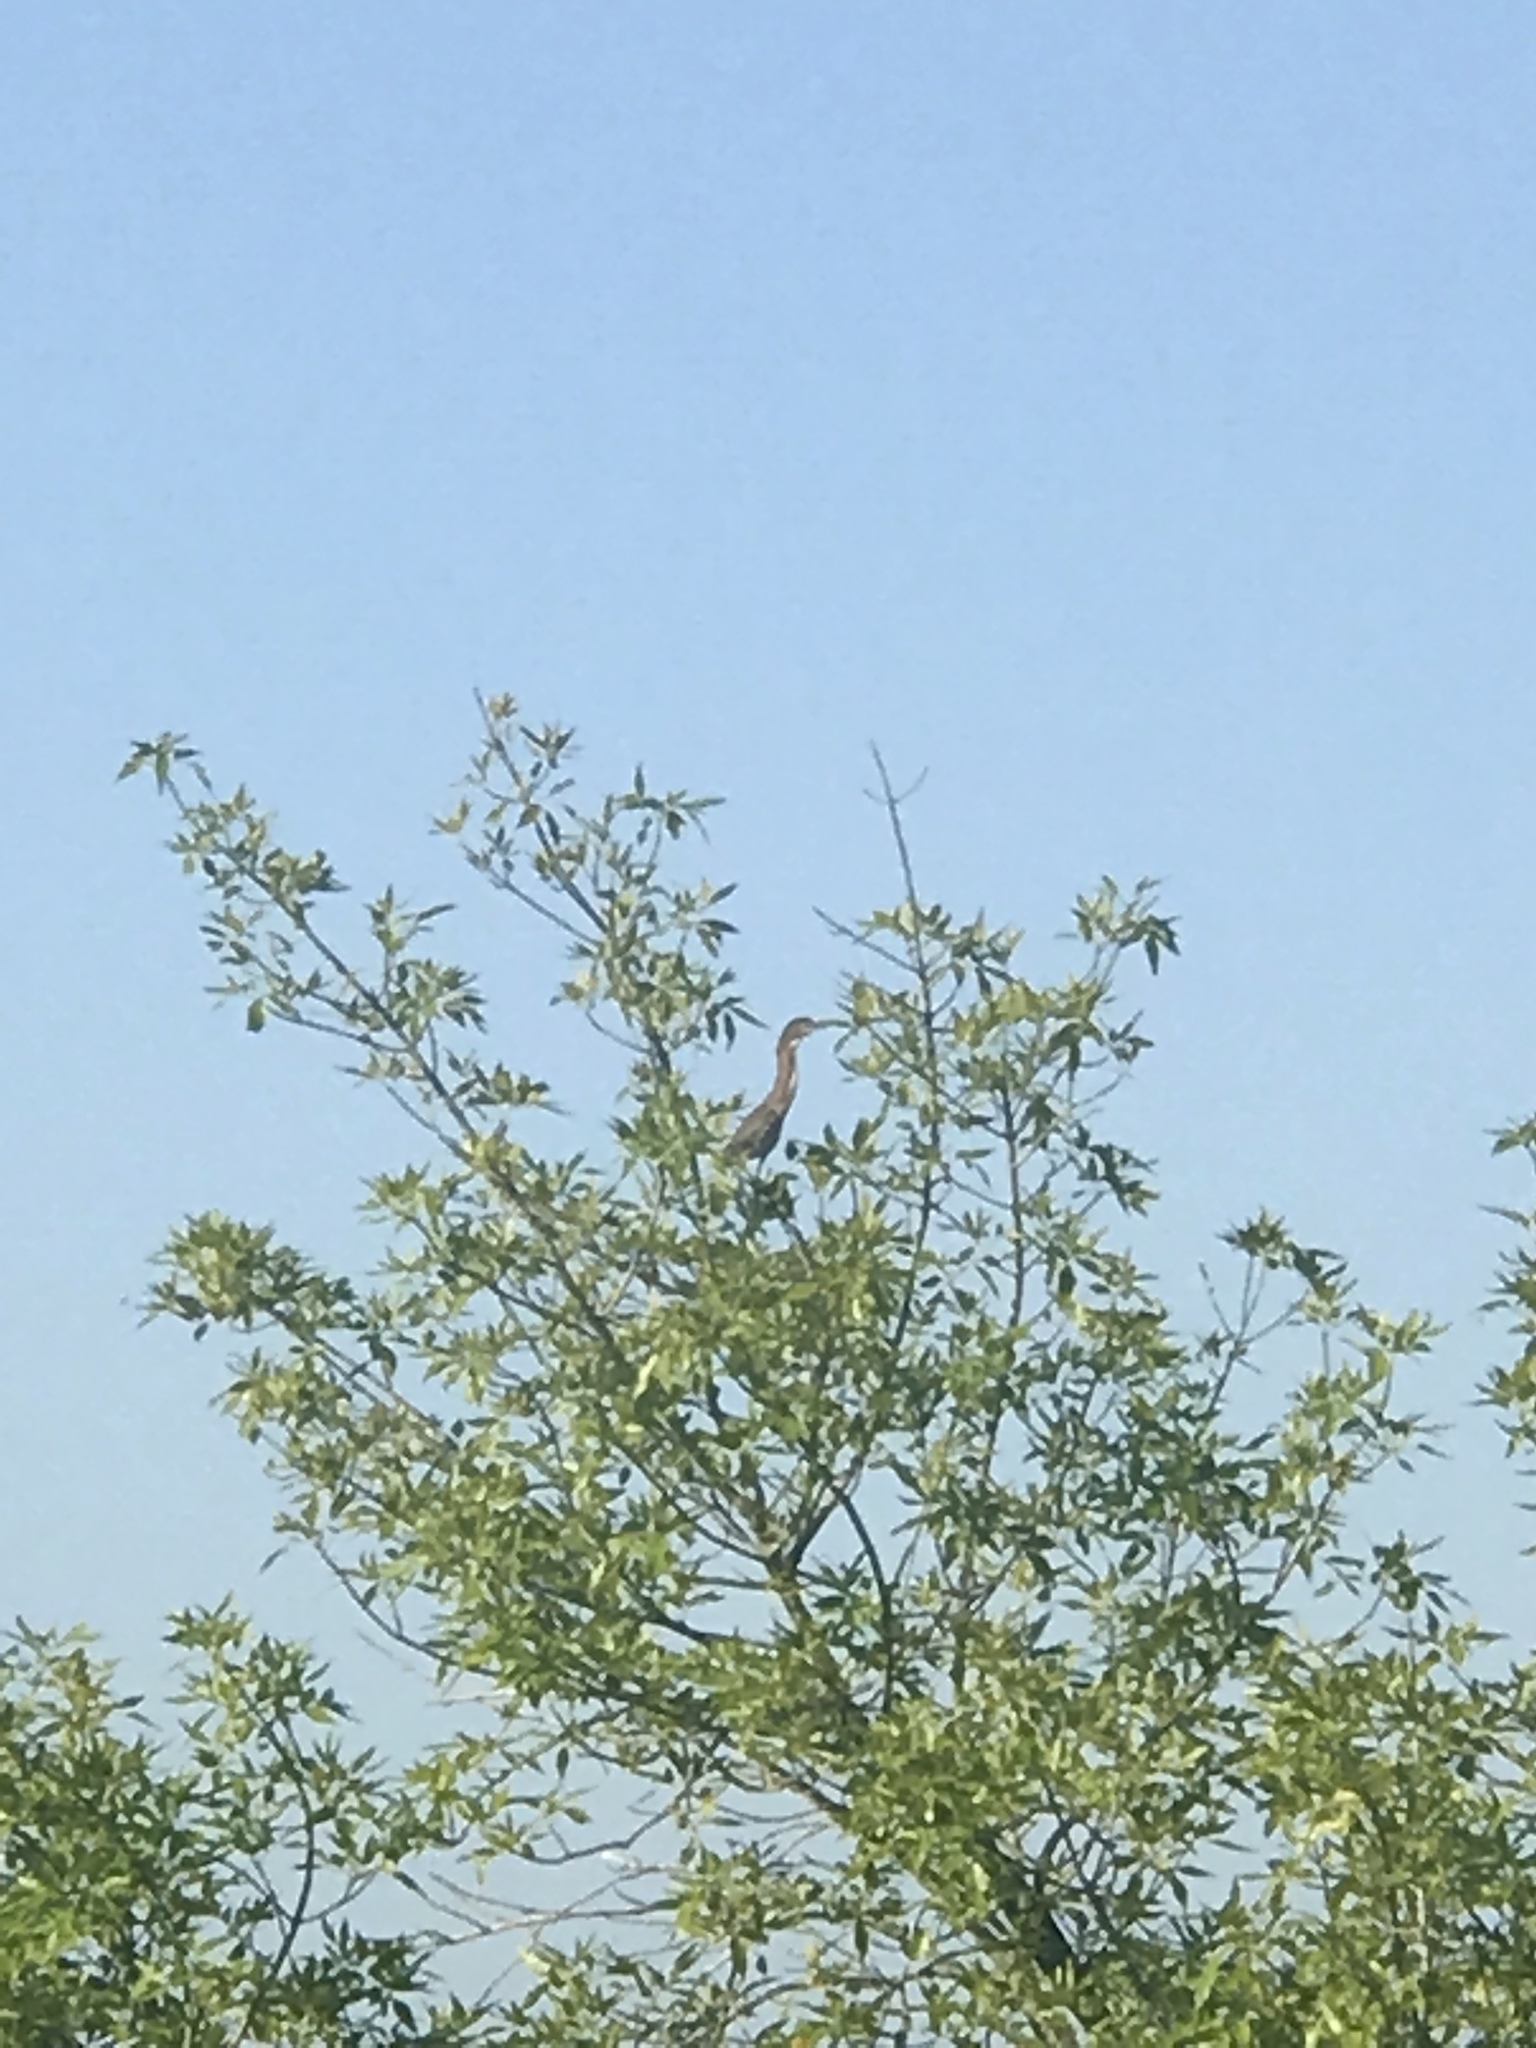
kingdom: Animalia
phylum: Chordata
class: Aves
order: Pelecaniformes
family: Ardeidae
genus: Butorides
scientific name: Butorides virescens
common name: Green heron
